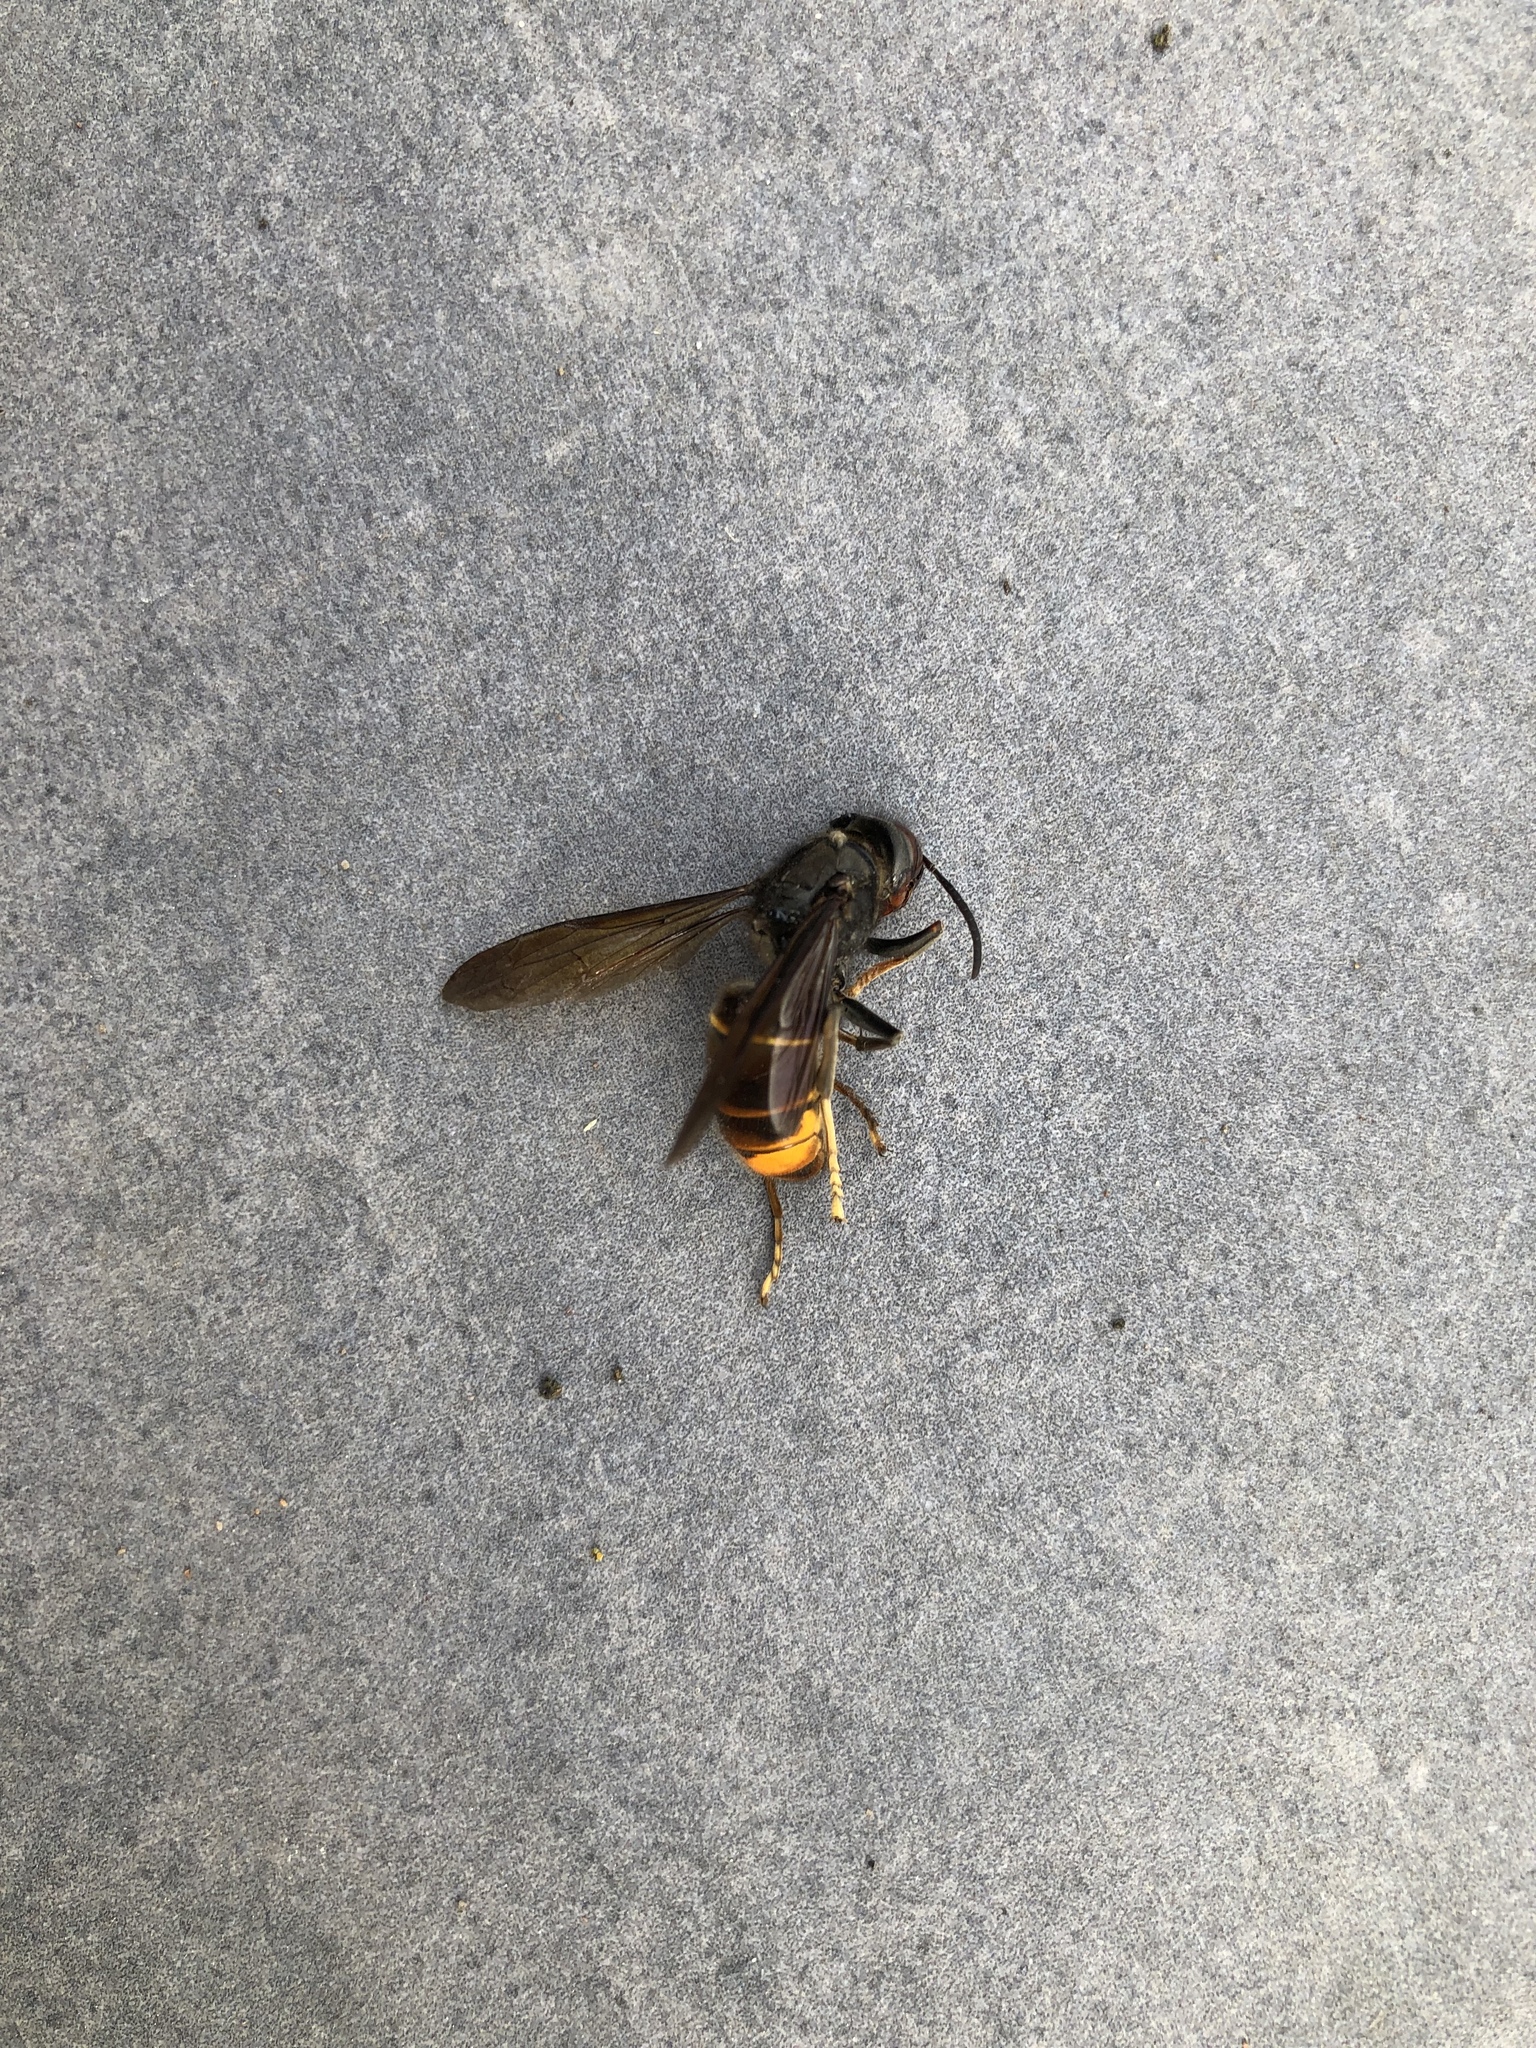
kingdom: Animalia
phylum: Arthropoda
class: Insecta
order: Hymenoptera
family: Vespidae
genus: Vespa
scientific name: Vespa velutina
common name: Asian hornet
